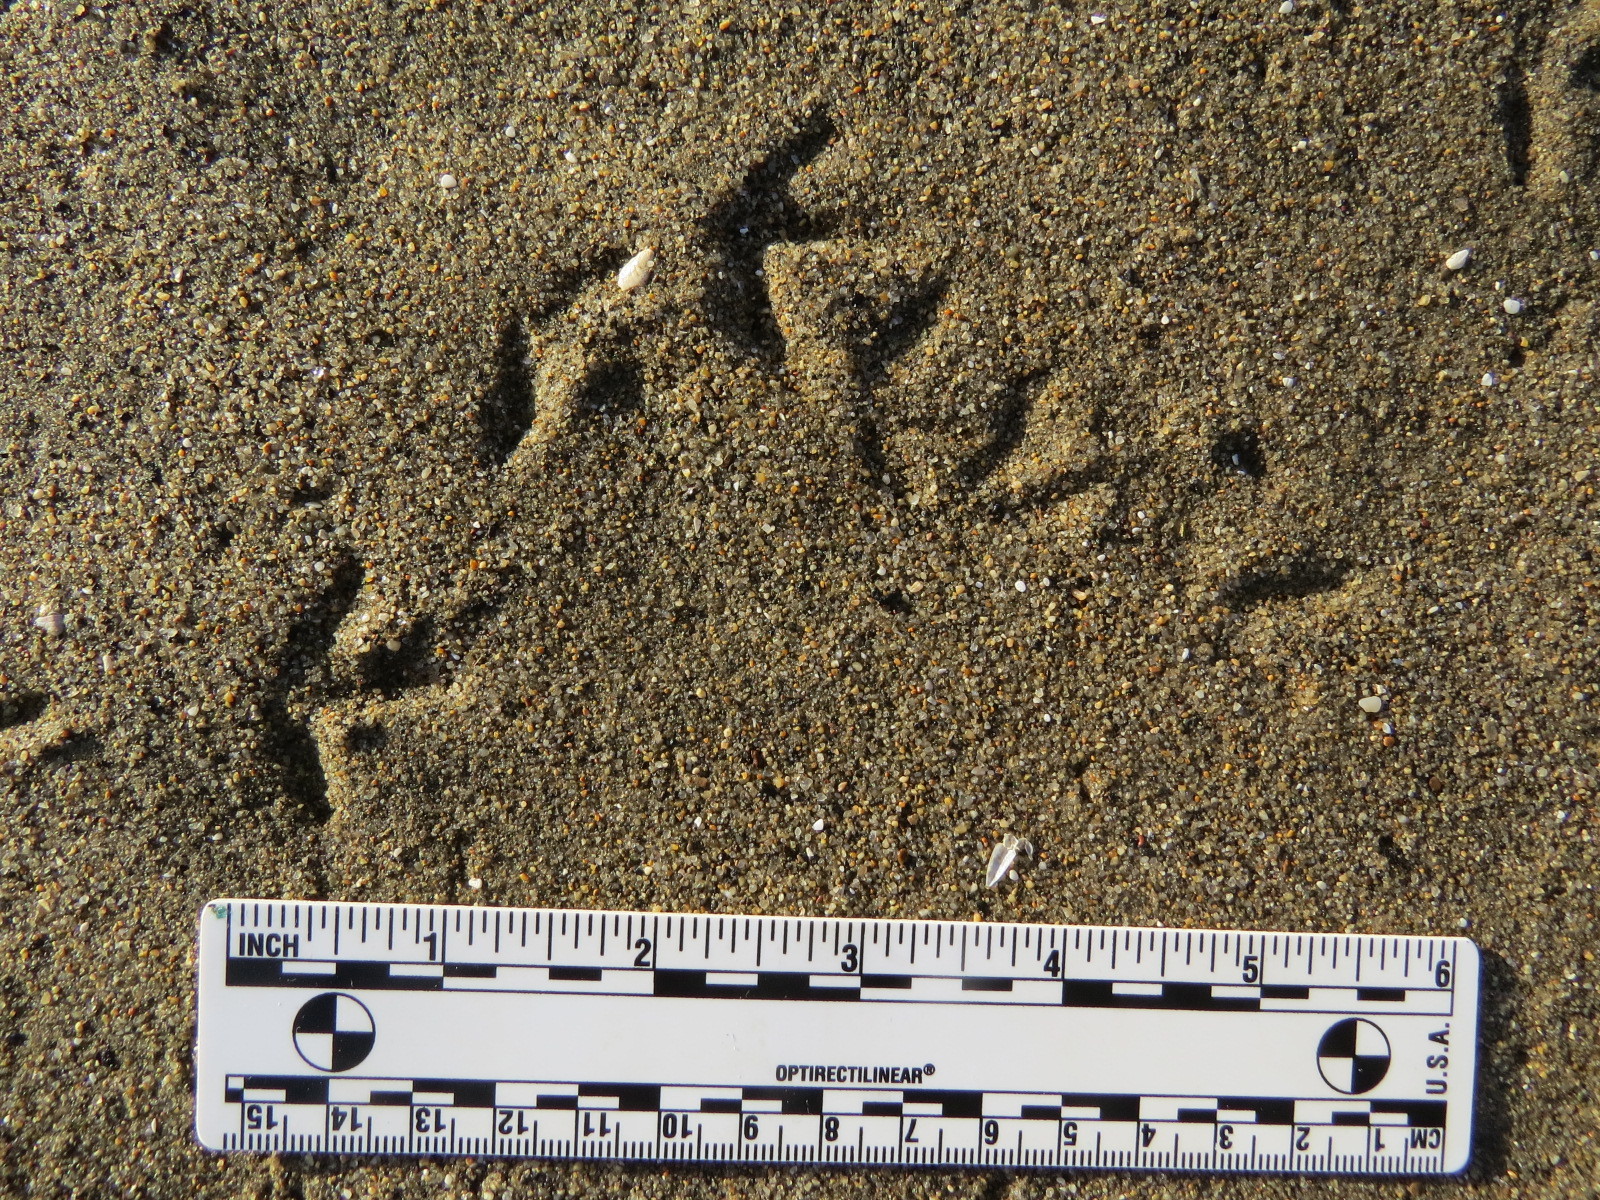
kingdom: Animalia
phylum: Chordata
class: Aves
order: Charadriiformes
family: Charadriidae
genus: Charadrius
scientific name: Charadrius semipalmatus
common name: Semipalmated plover
